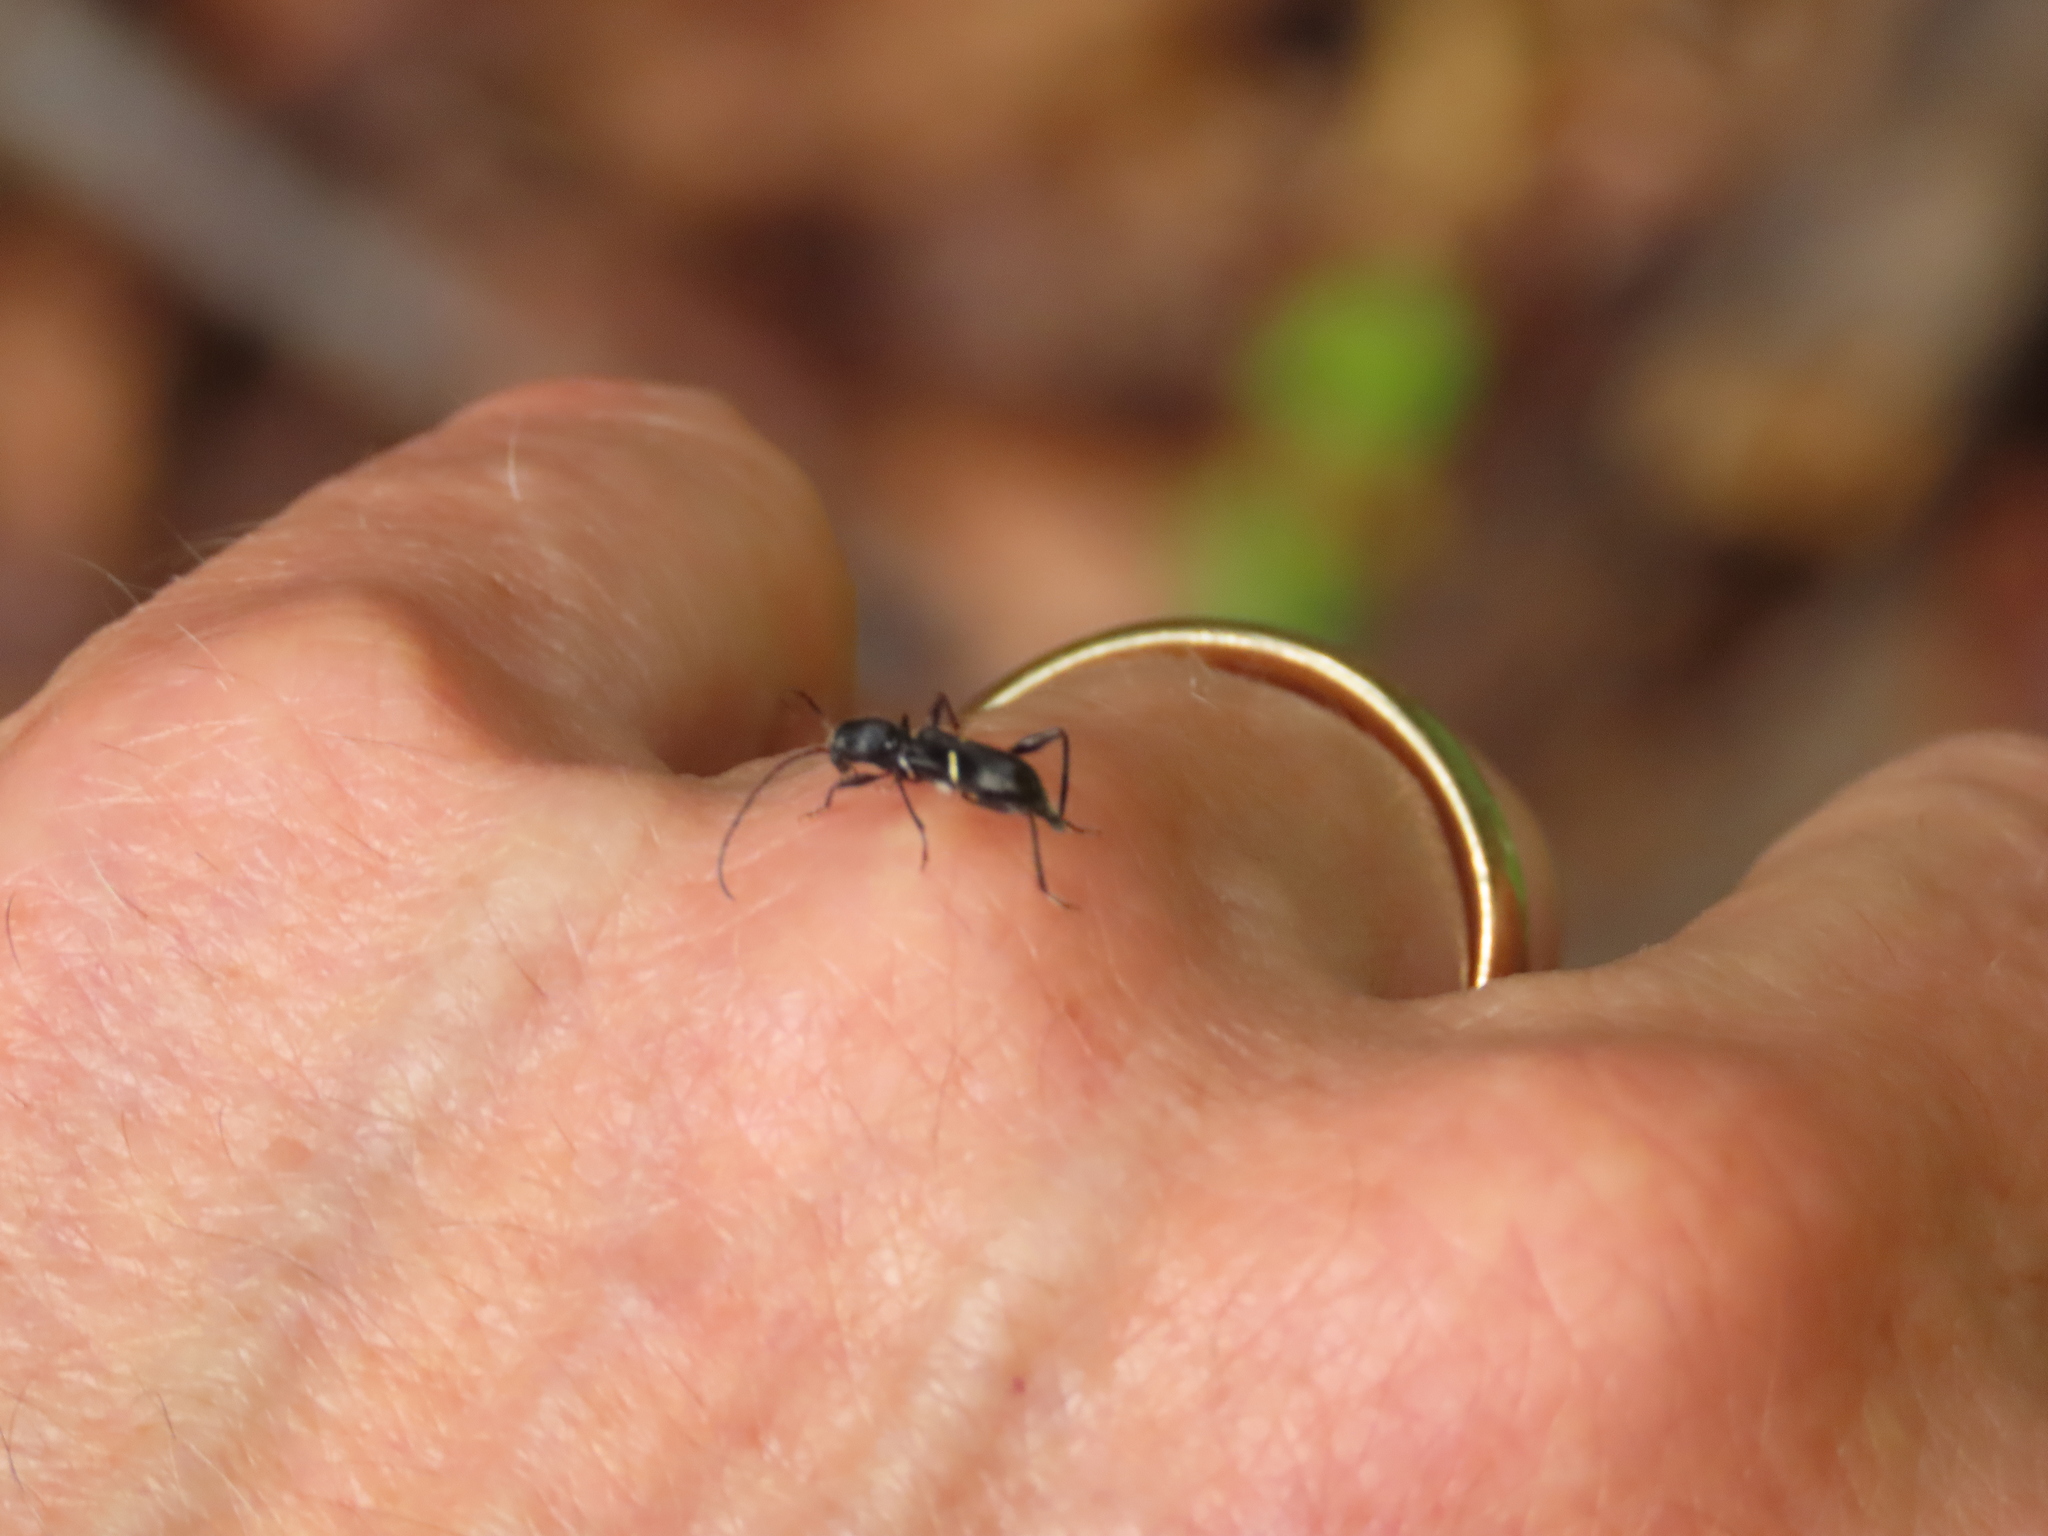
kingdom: Animalia
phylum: Arthropoda
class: Insecta
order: Coleoptera
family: Cerambycidae
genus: Euderces
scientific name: Euderces picipes
